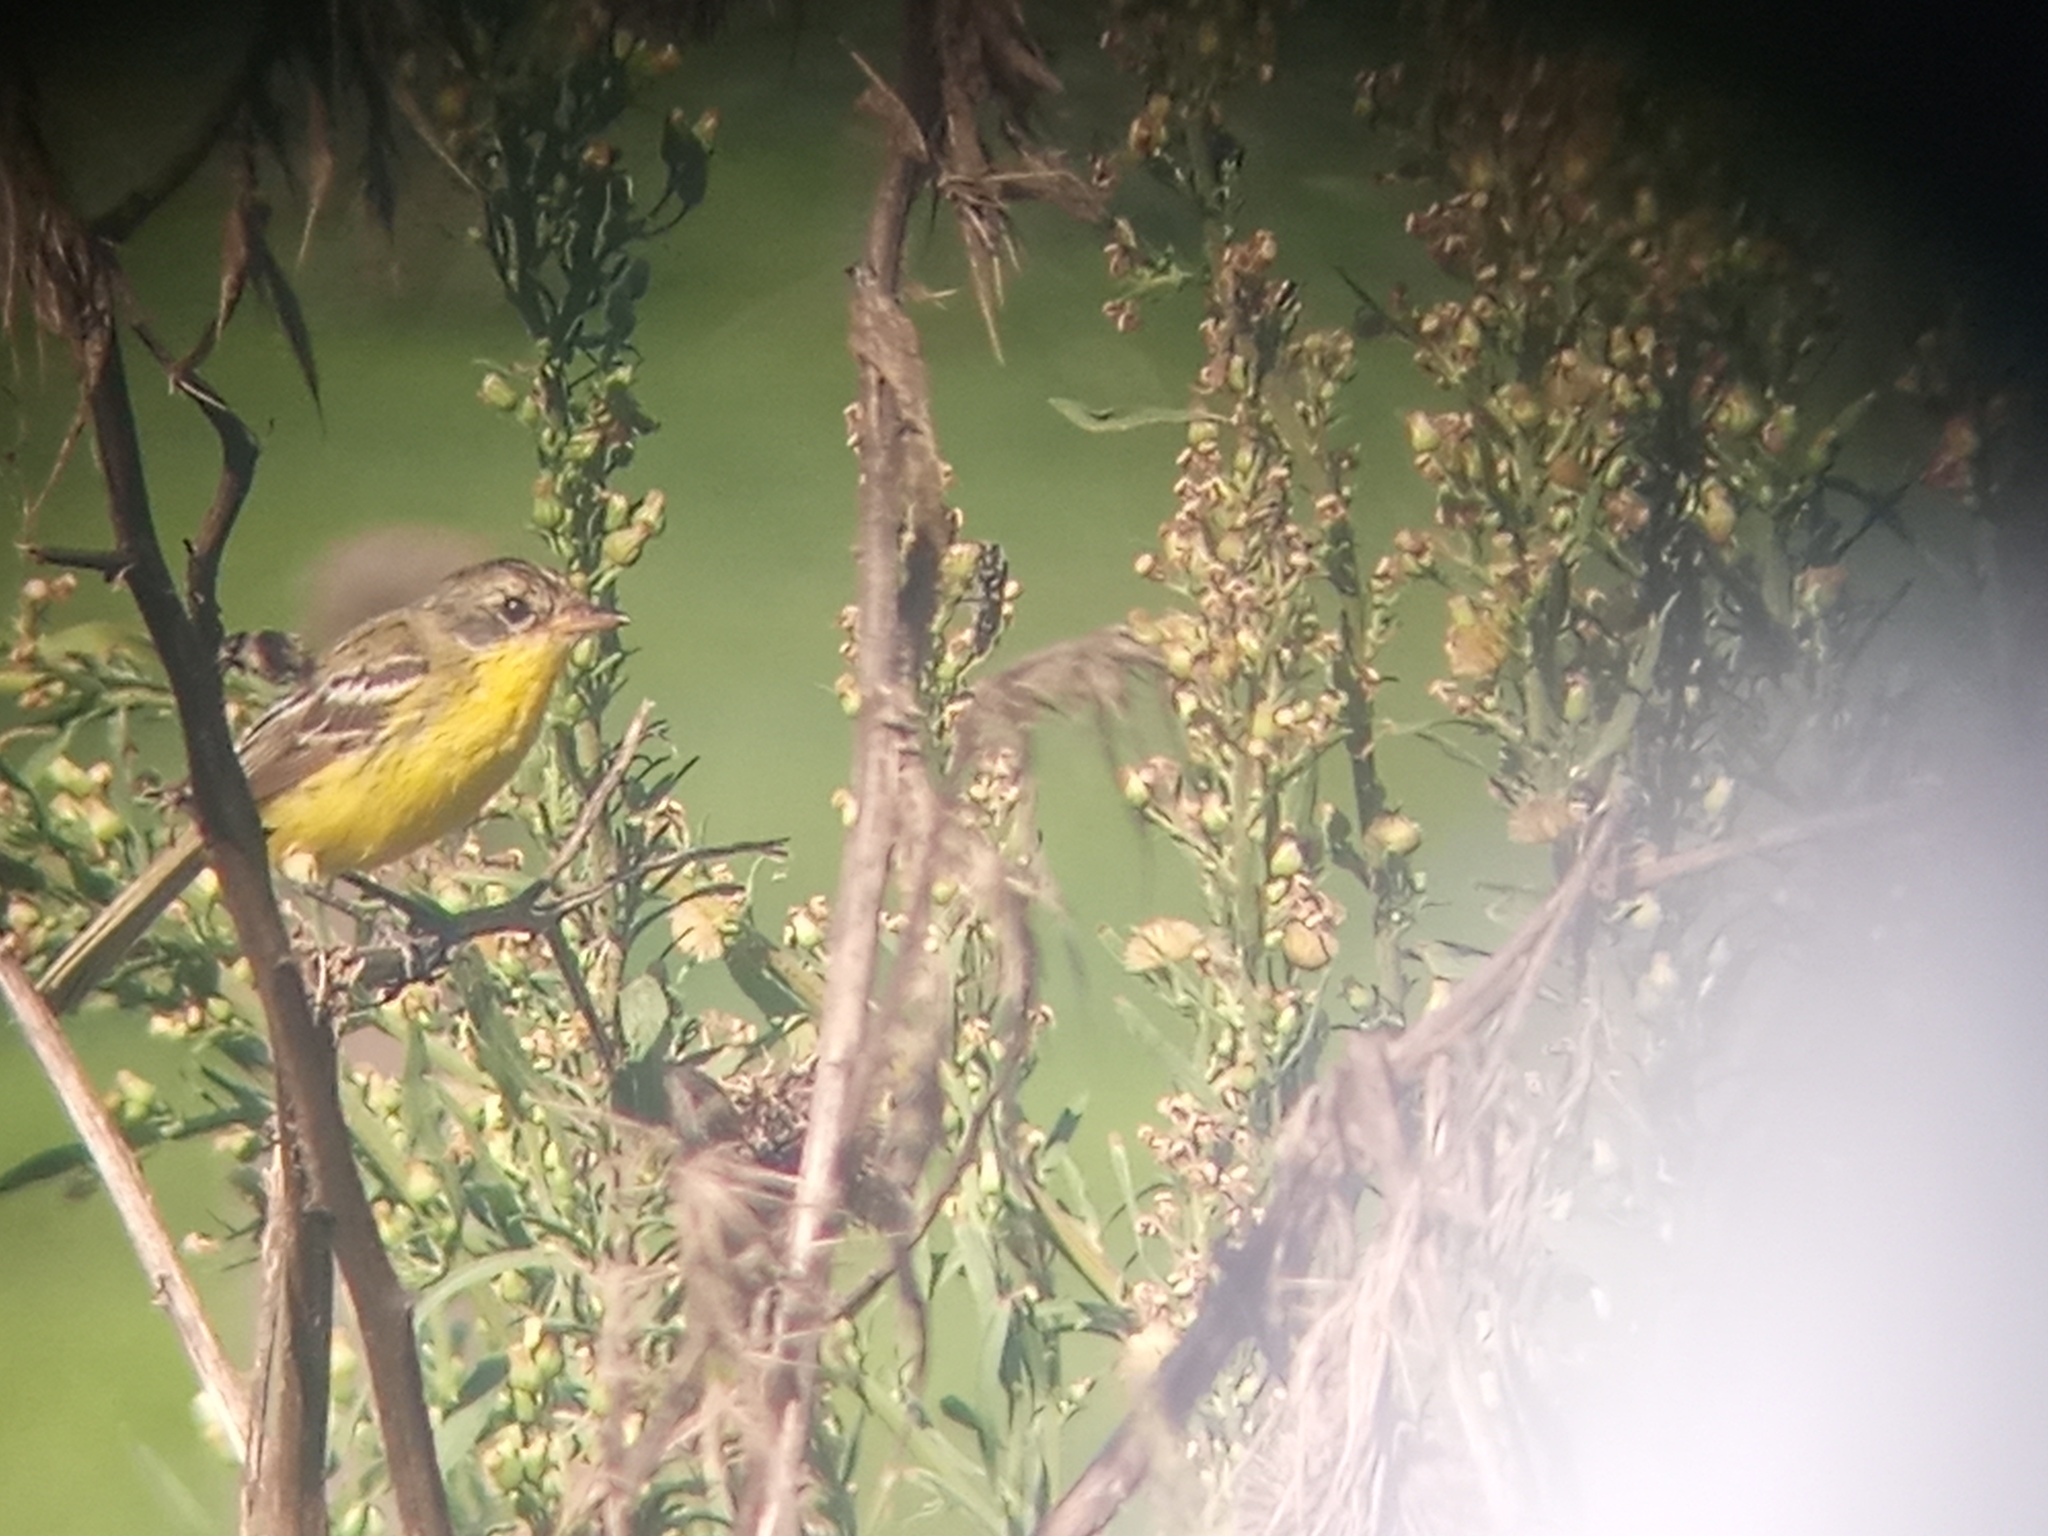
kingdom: Animalia
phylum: Chordata
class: Aves
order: Passeriformes
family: Tyrannidae
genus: Pseudocolopteryx
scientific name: Pseudocolopteryx sclateri
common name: Crested doradito
